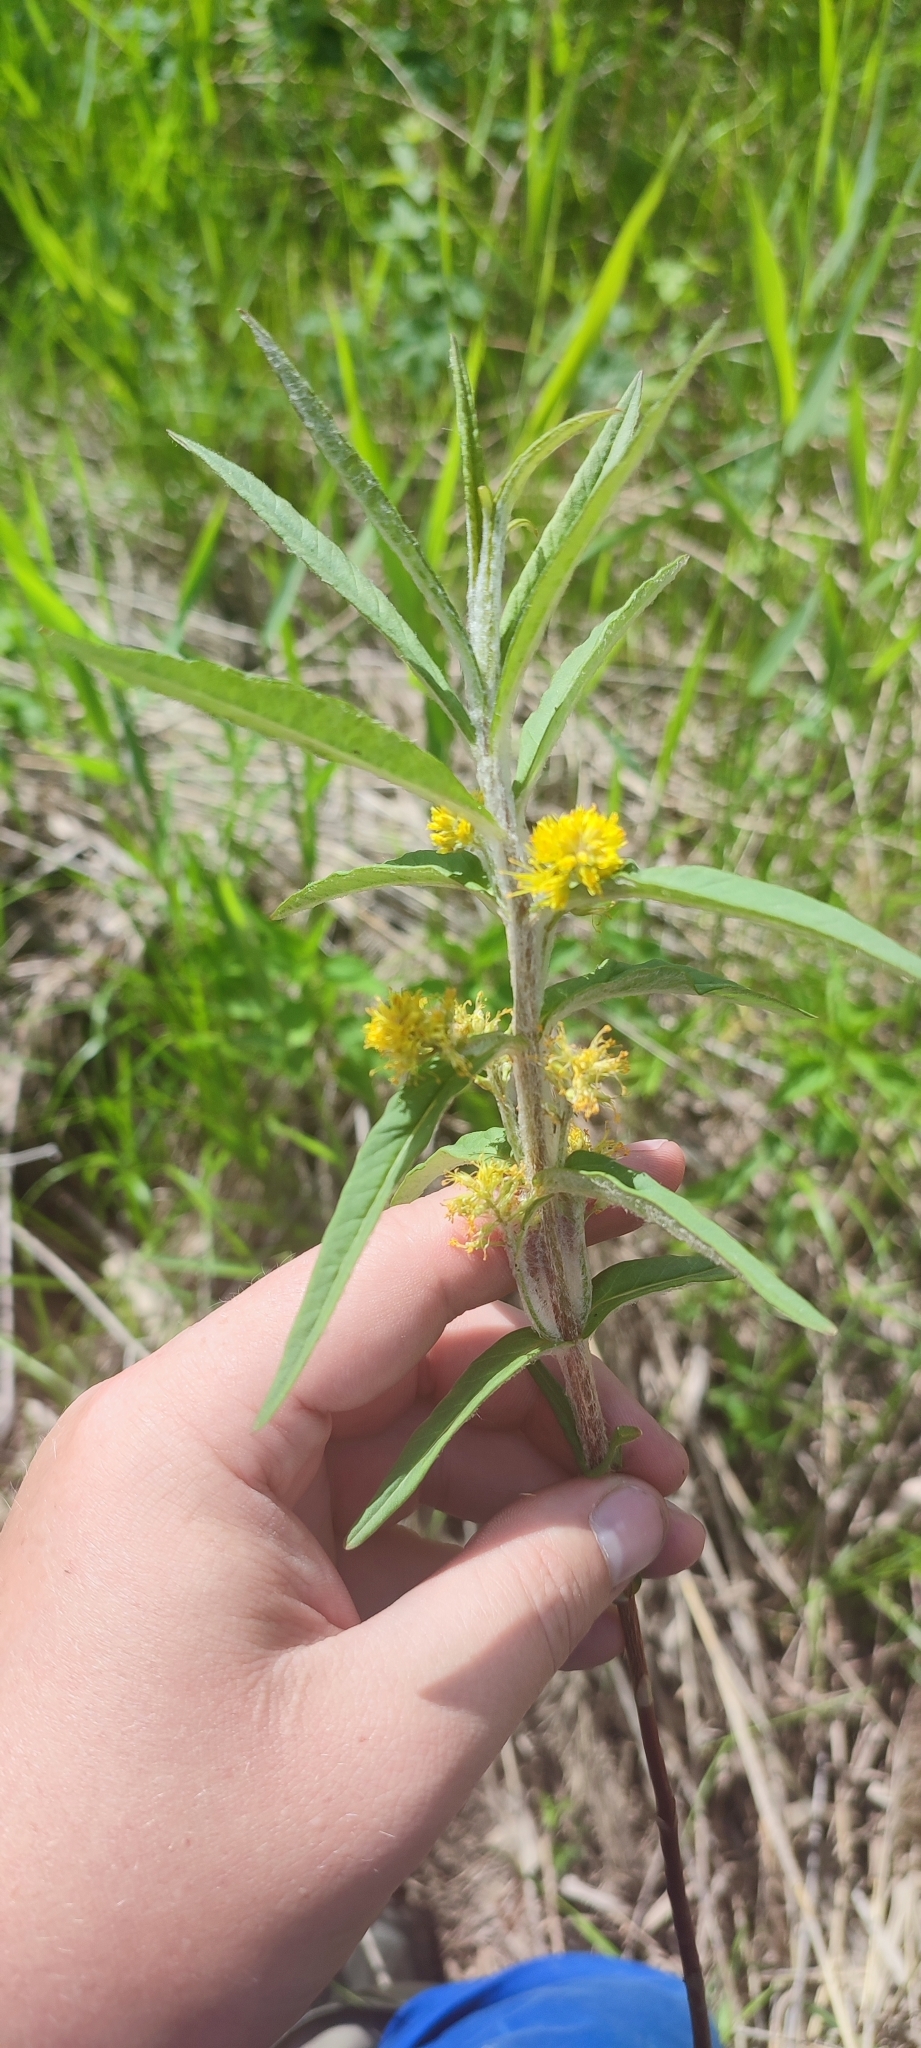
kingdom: Plantae
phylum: Tracheophyta
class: Magnoliopsida
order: Ericales
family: Primulaceae
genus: Lysimachia
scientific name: Lysimachia thyrsiflora
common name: Tufted loosestrife
